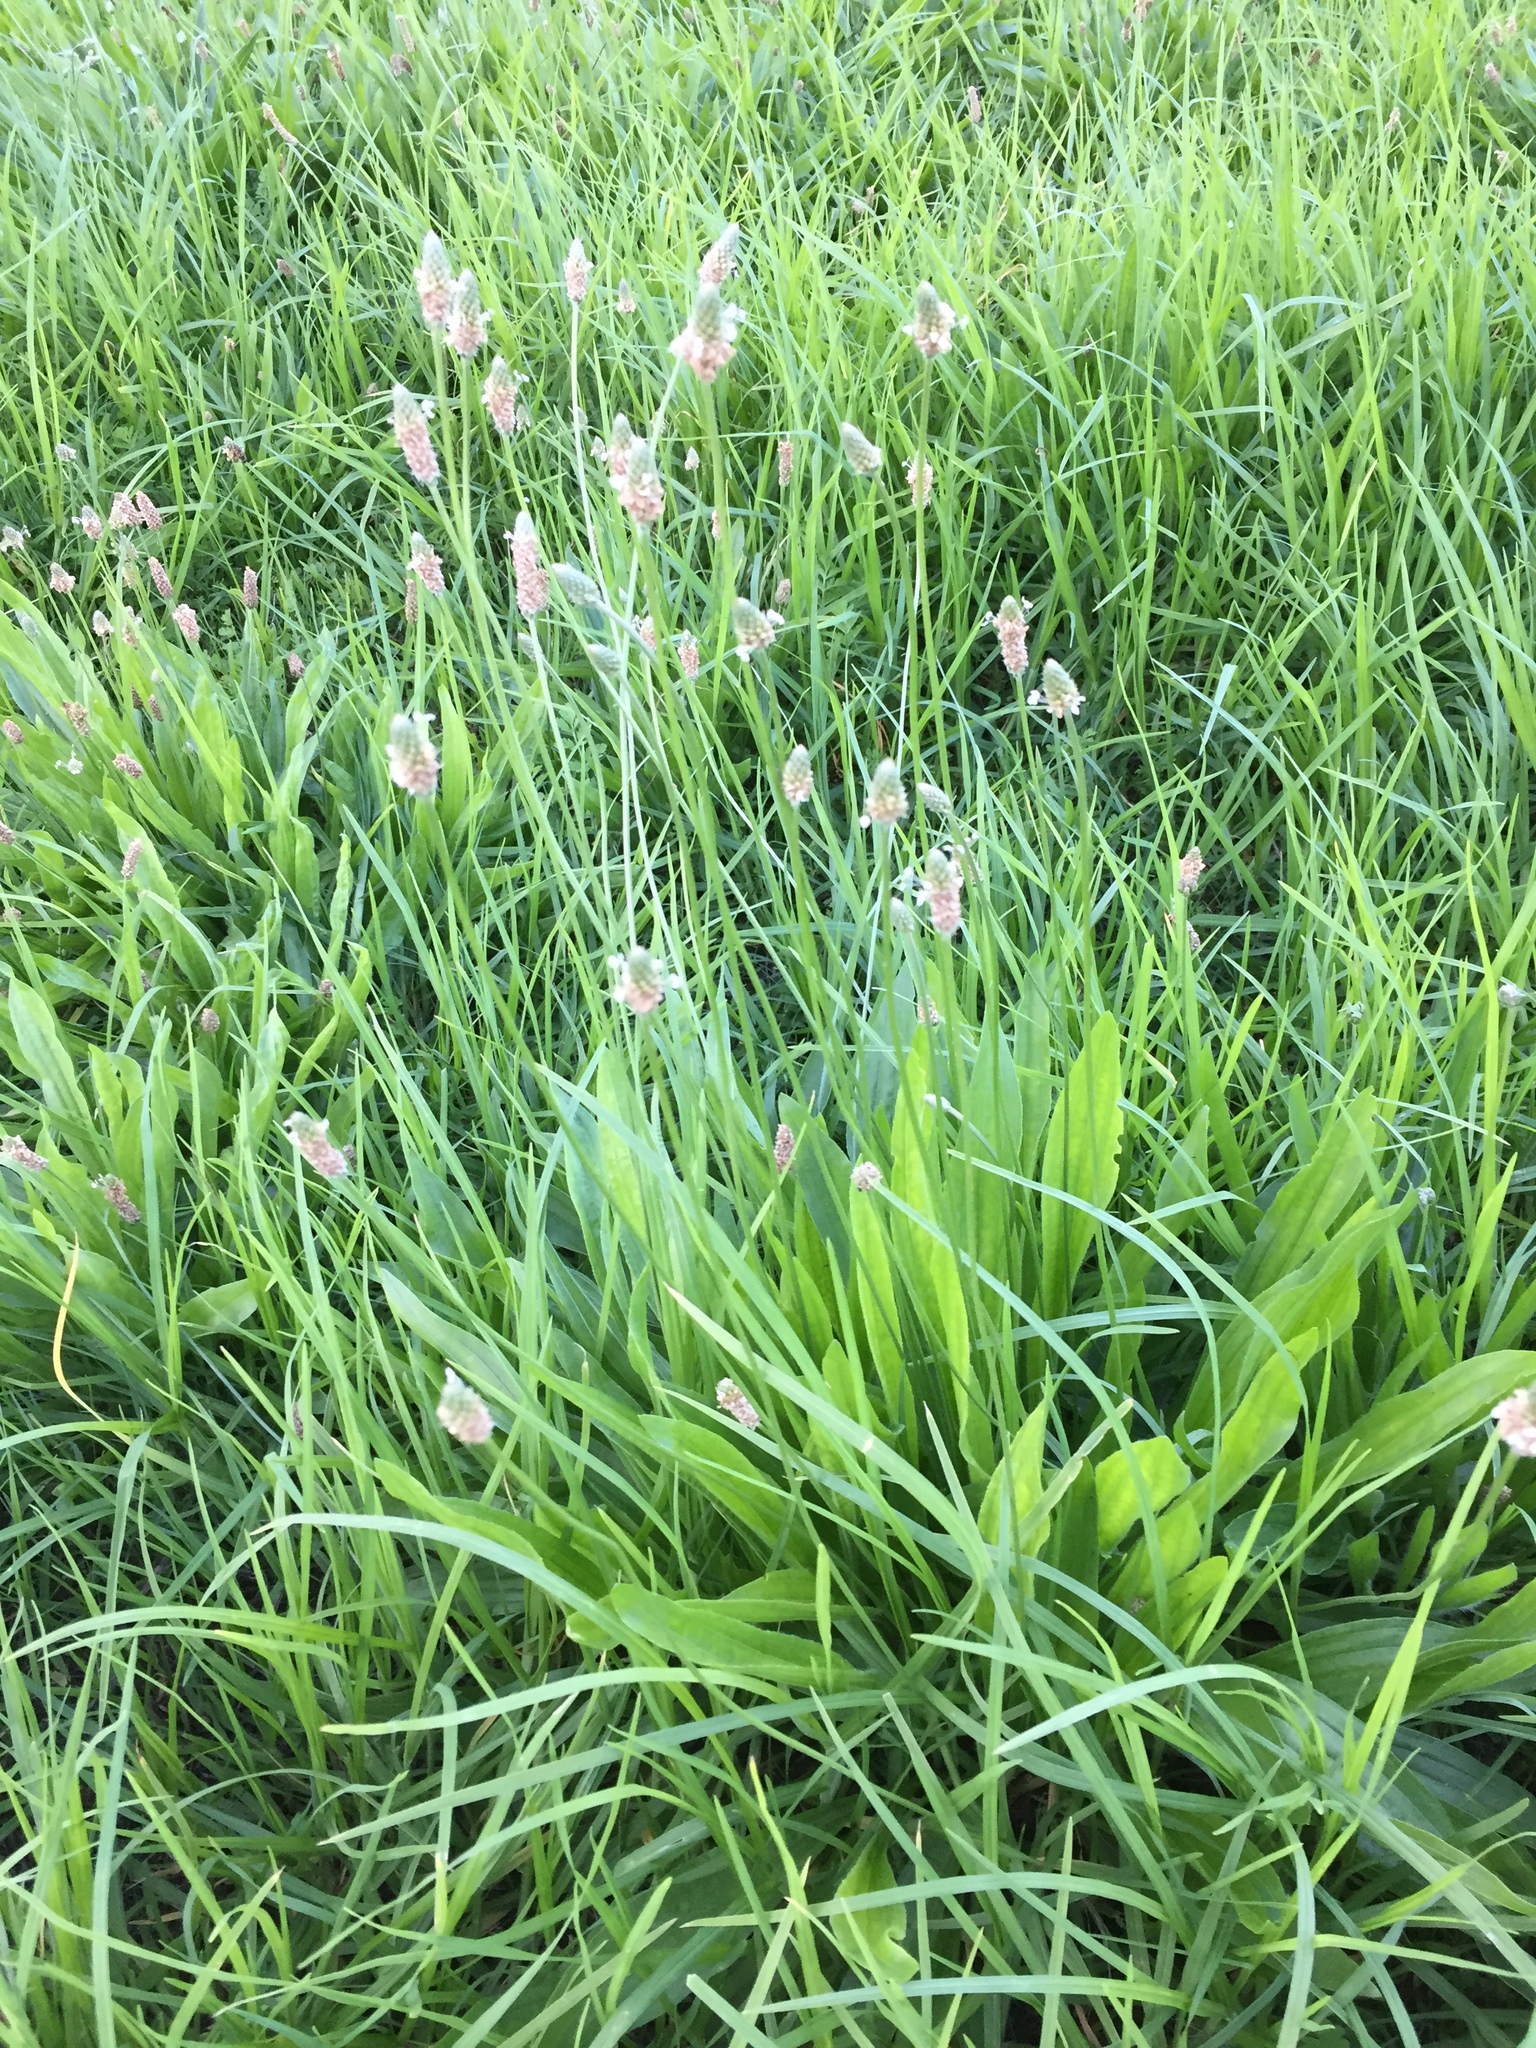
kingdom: Plantae
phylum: Tracheophyta
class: Magnoliopsida
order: Lamiales
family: Plantaginaceae
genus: Plantago
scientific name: Plantago lanceolata
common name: Ribwort plantain
